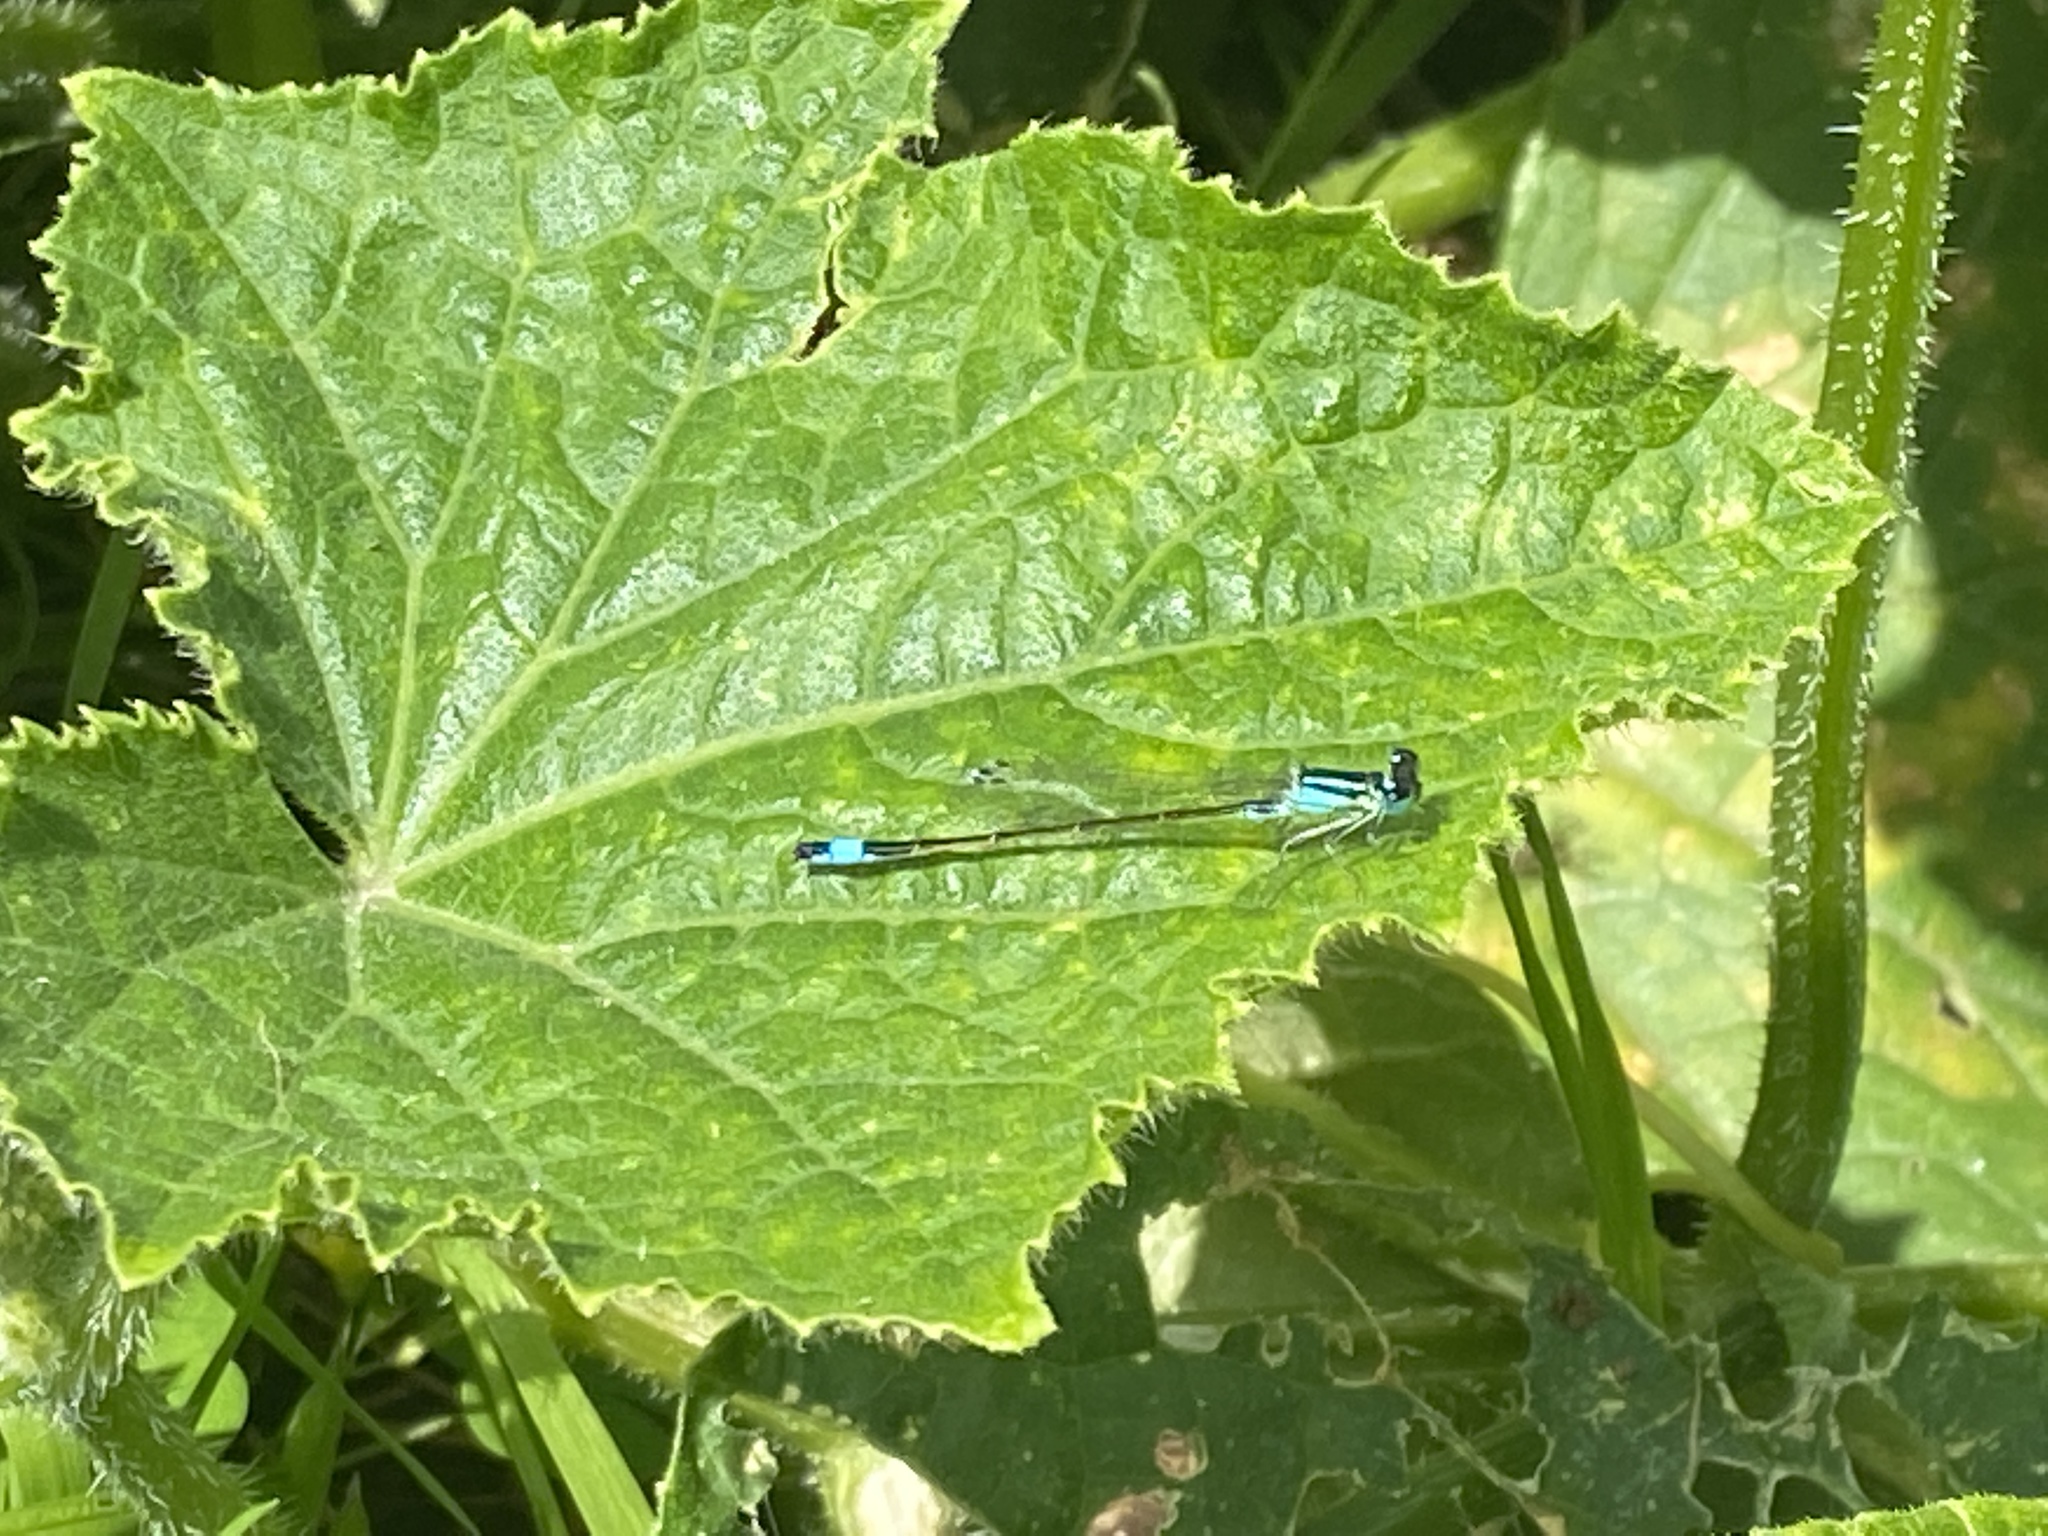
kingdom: Animalia
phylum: Arthropoda
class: Insecta
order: Odonata
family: Coenagrionidae
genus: Ischnura
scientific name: Ischnura elegans
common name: Blue-tailed damselfly
